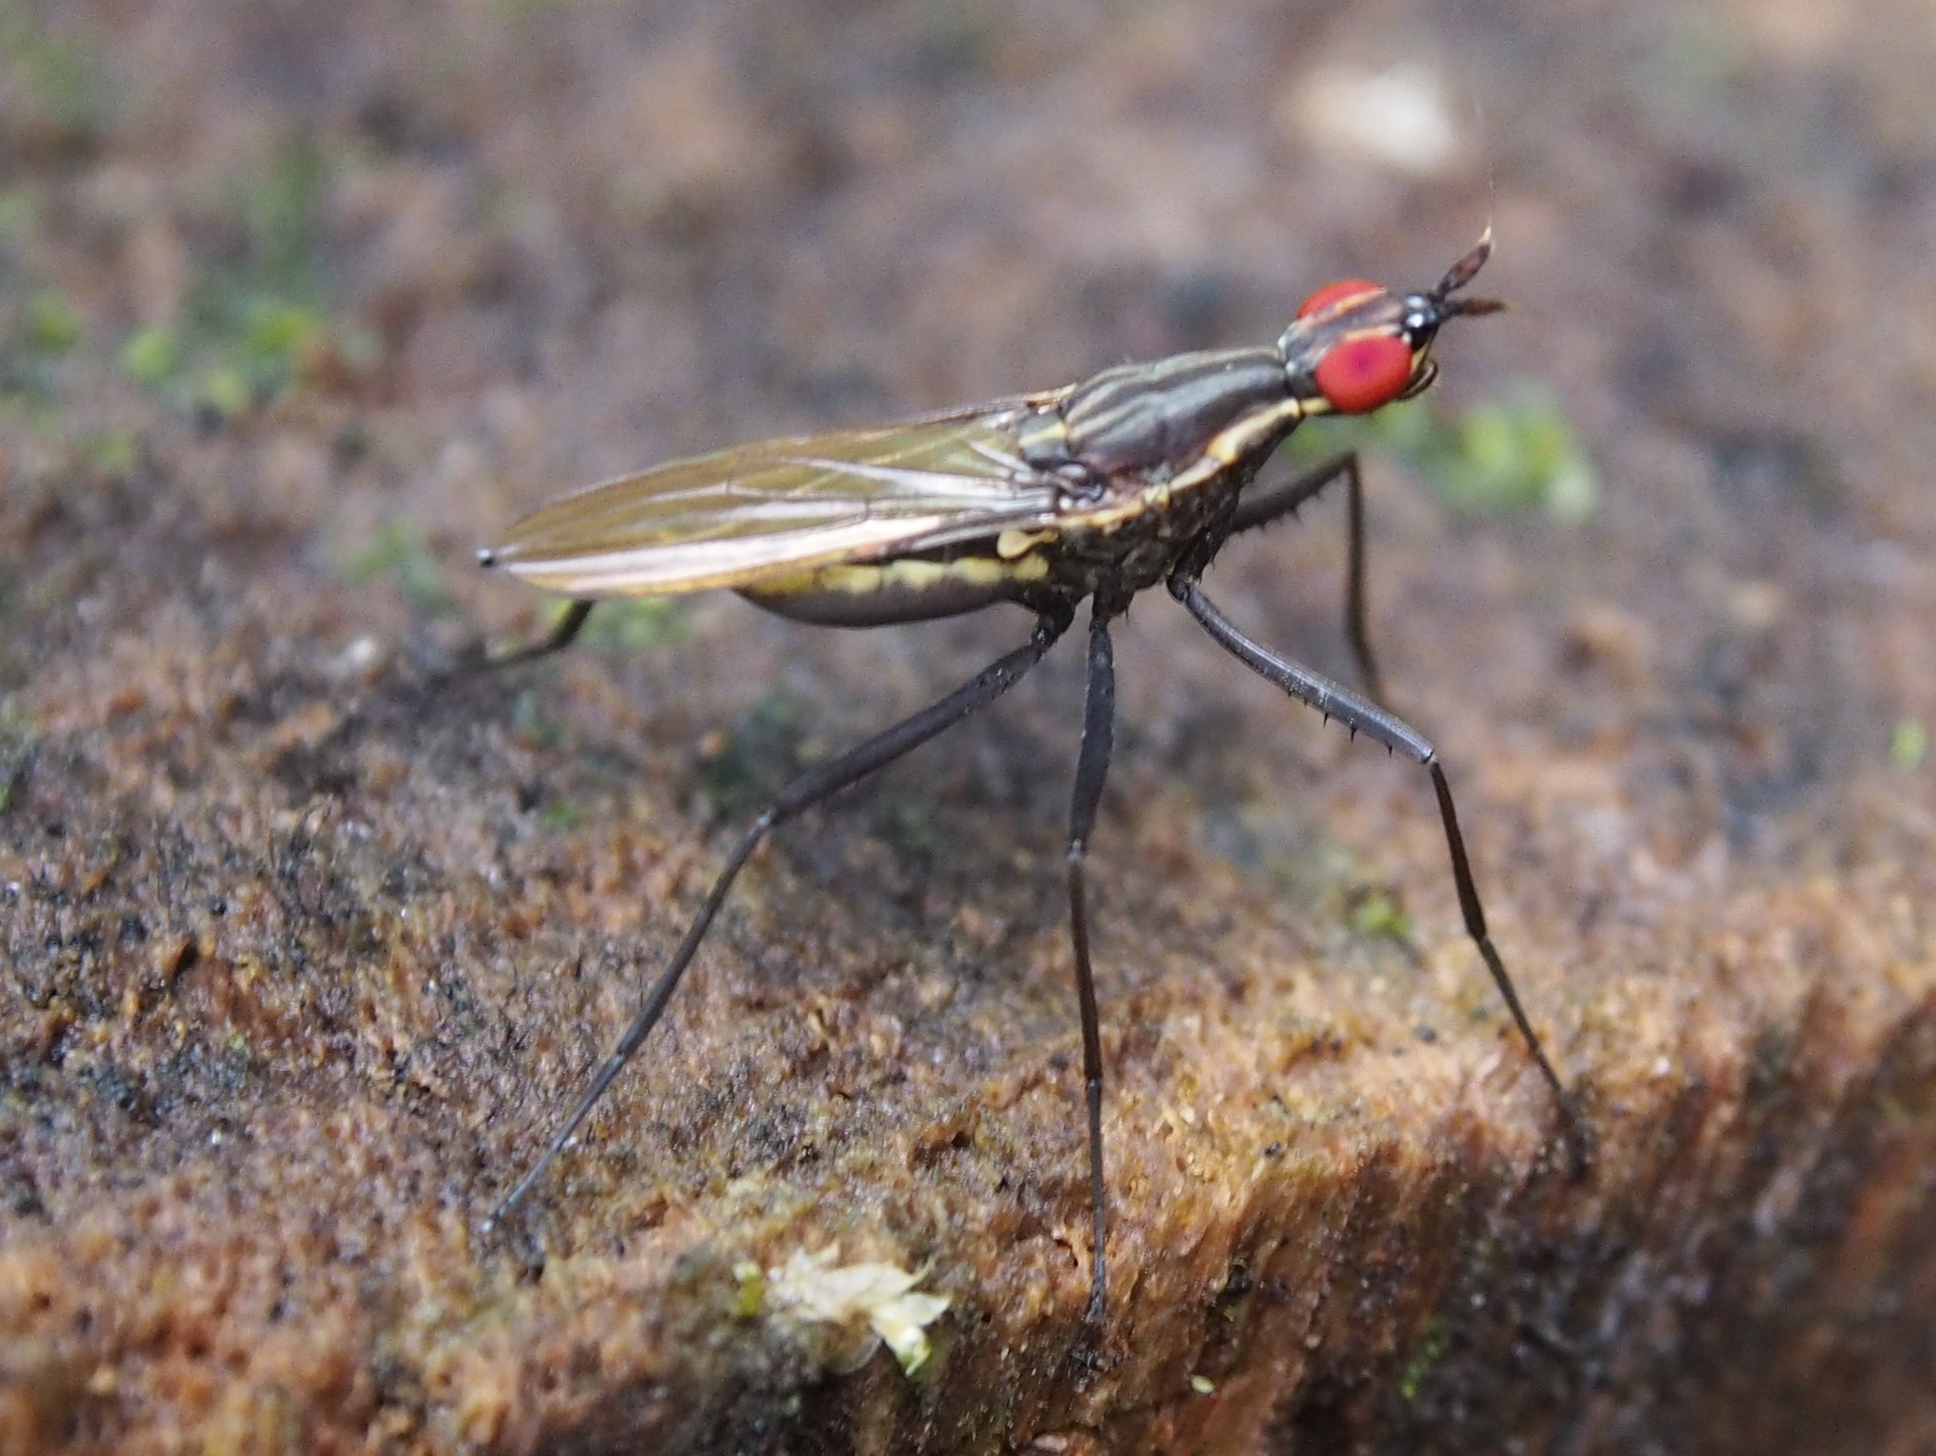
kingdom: Animalia
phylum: Arthropoda
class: Insecta
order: Diptera
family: Neriidae
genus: Nerius
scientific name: Nerius plurivittatus
